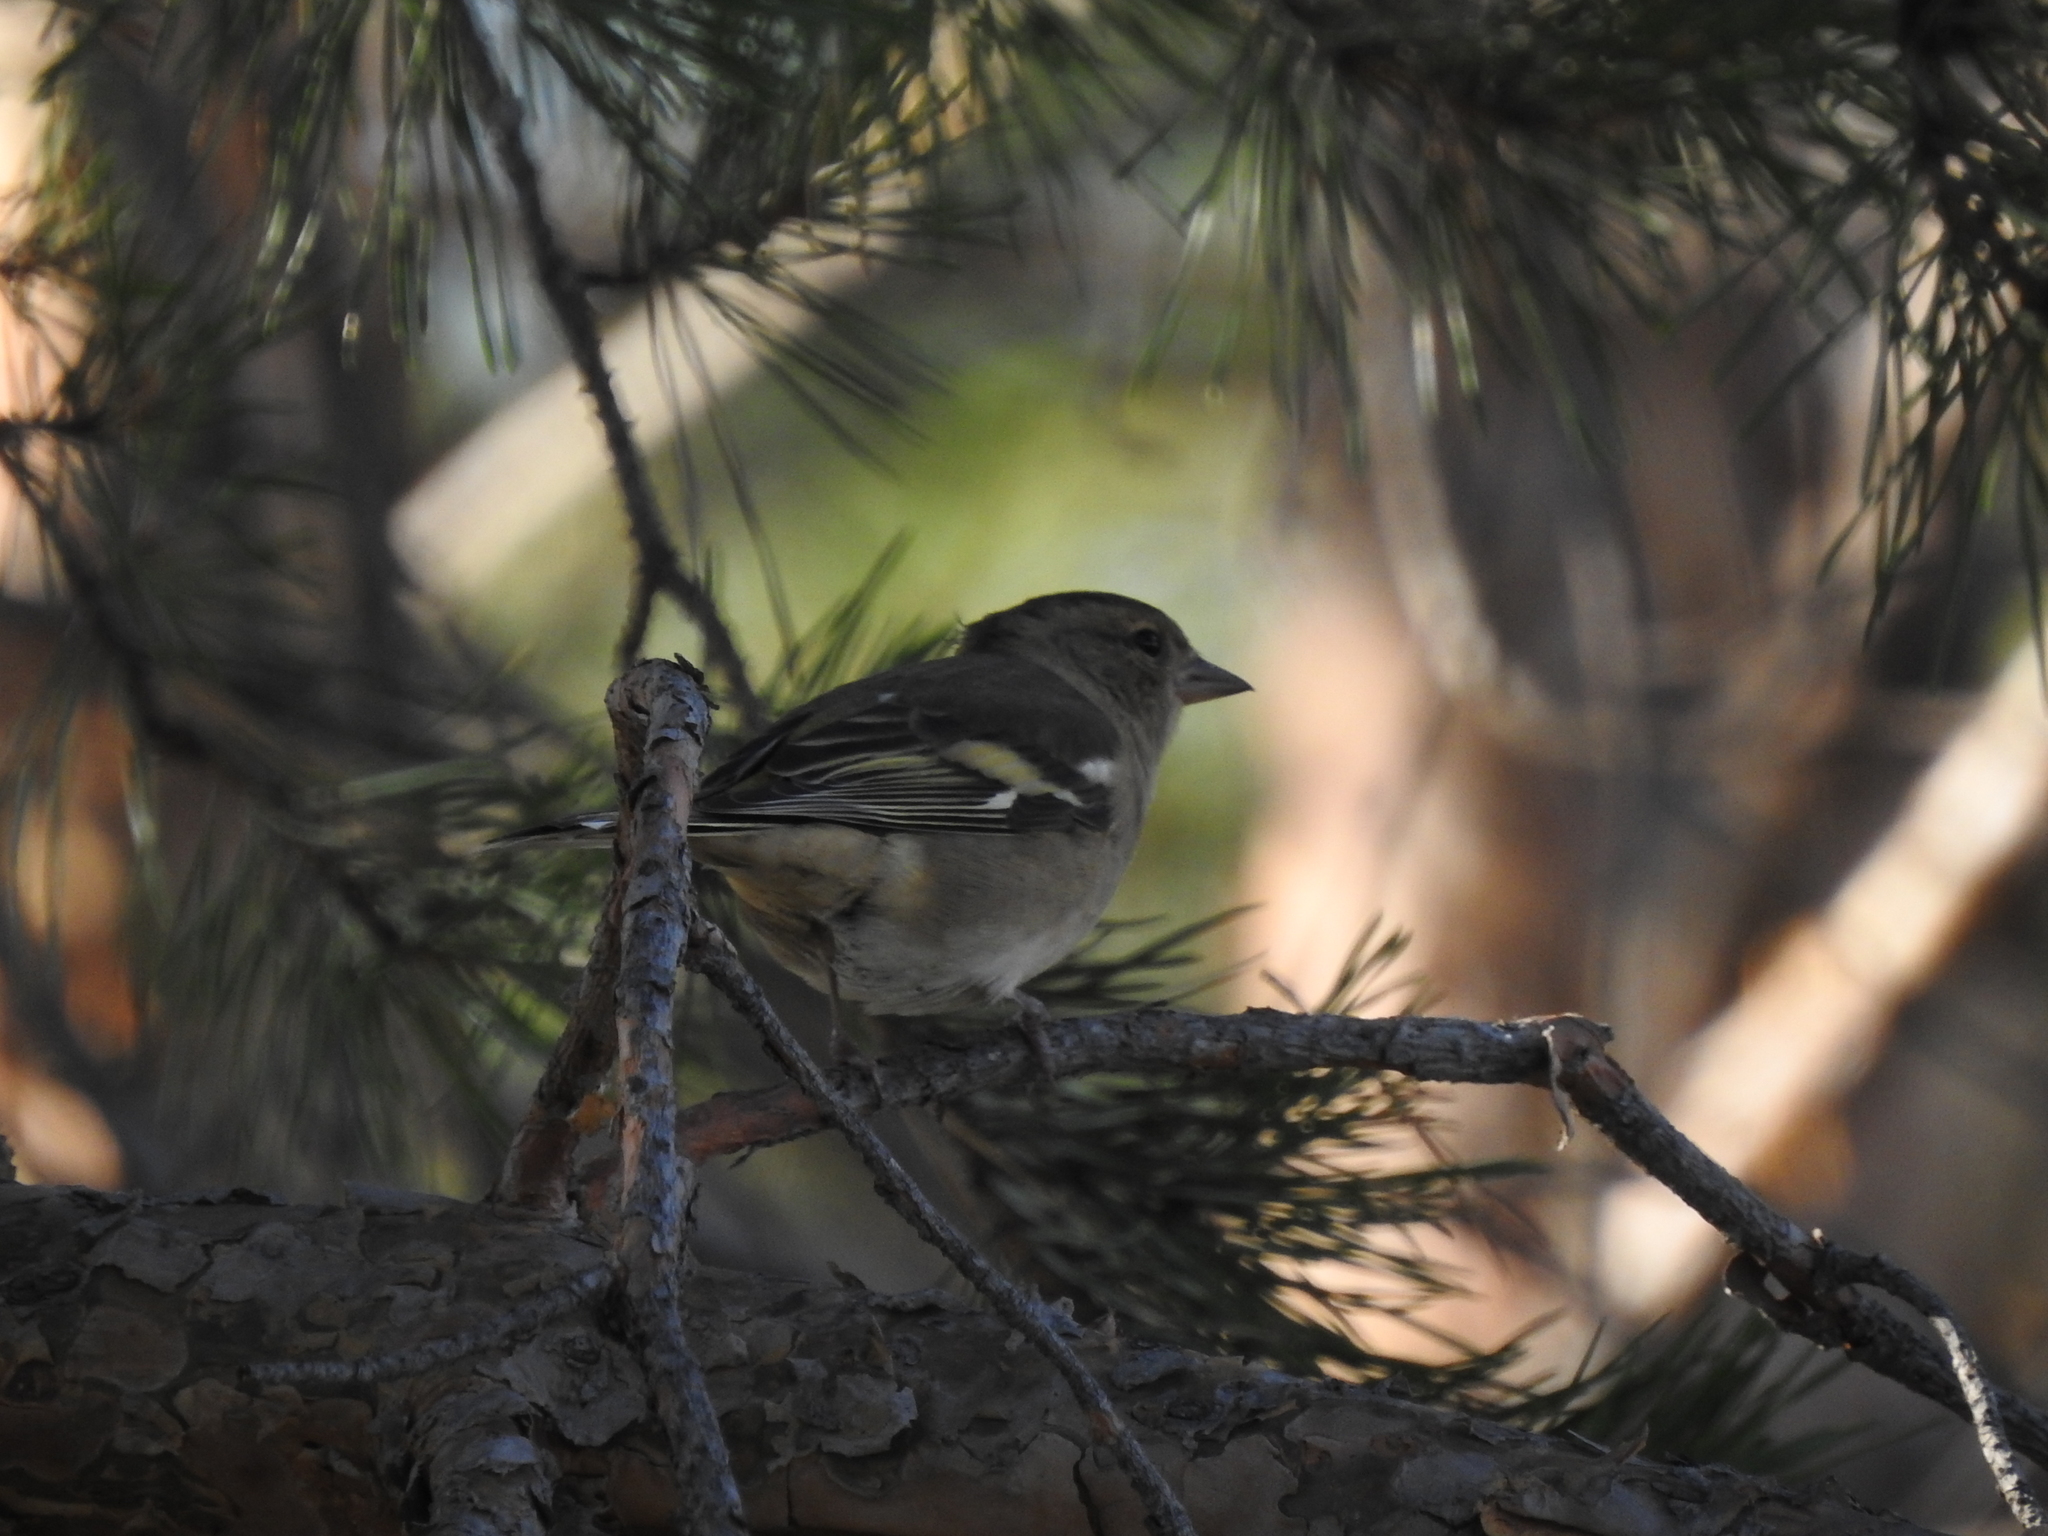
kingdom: Animalia
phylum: Chordata
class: Aves
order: Passeriformes
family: Fringillidae
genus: Fringilla
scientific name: Fringilla coelebs
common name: Common chaffinch
